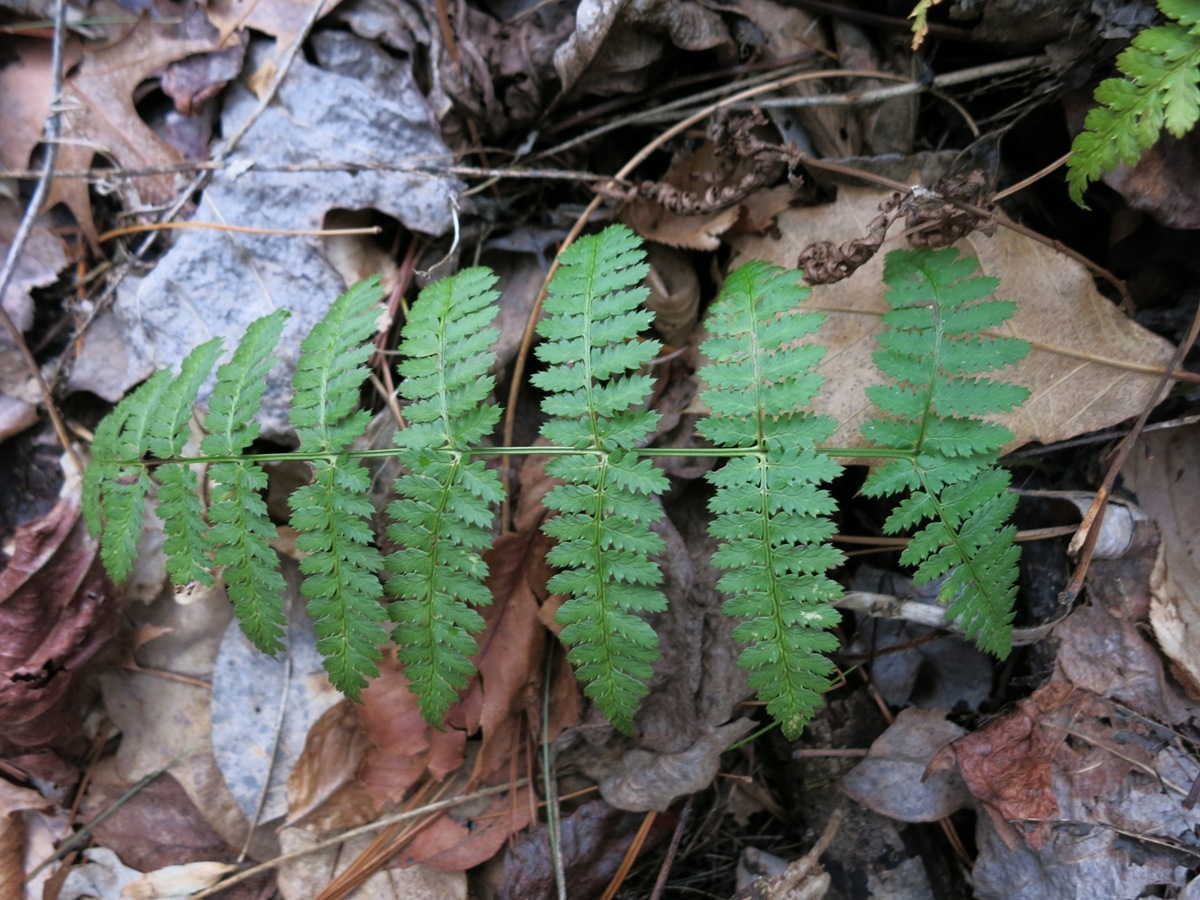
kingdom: Plantae
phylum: Tracheophyta
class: Polypodiopsida
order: Polypodiales
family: Dryopteridaceae
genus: Dryopteris
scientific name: Dryopteris intermedia
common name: Evergreen wood fern
